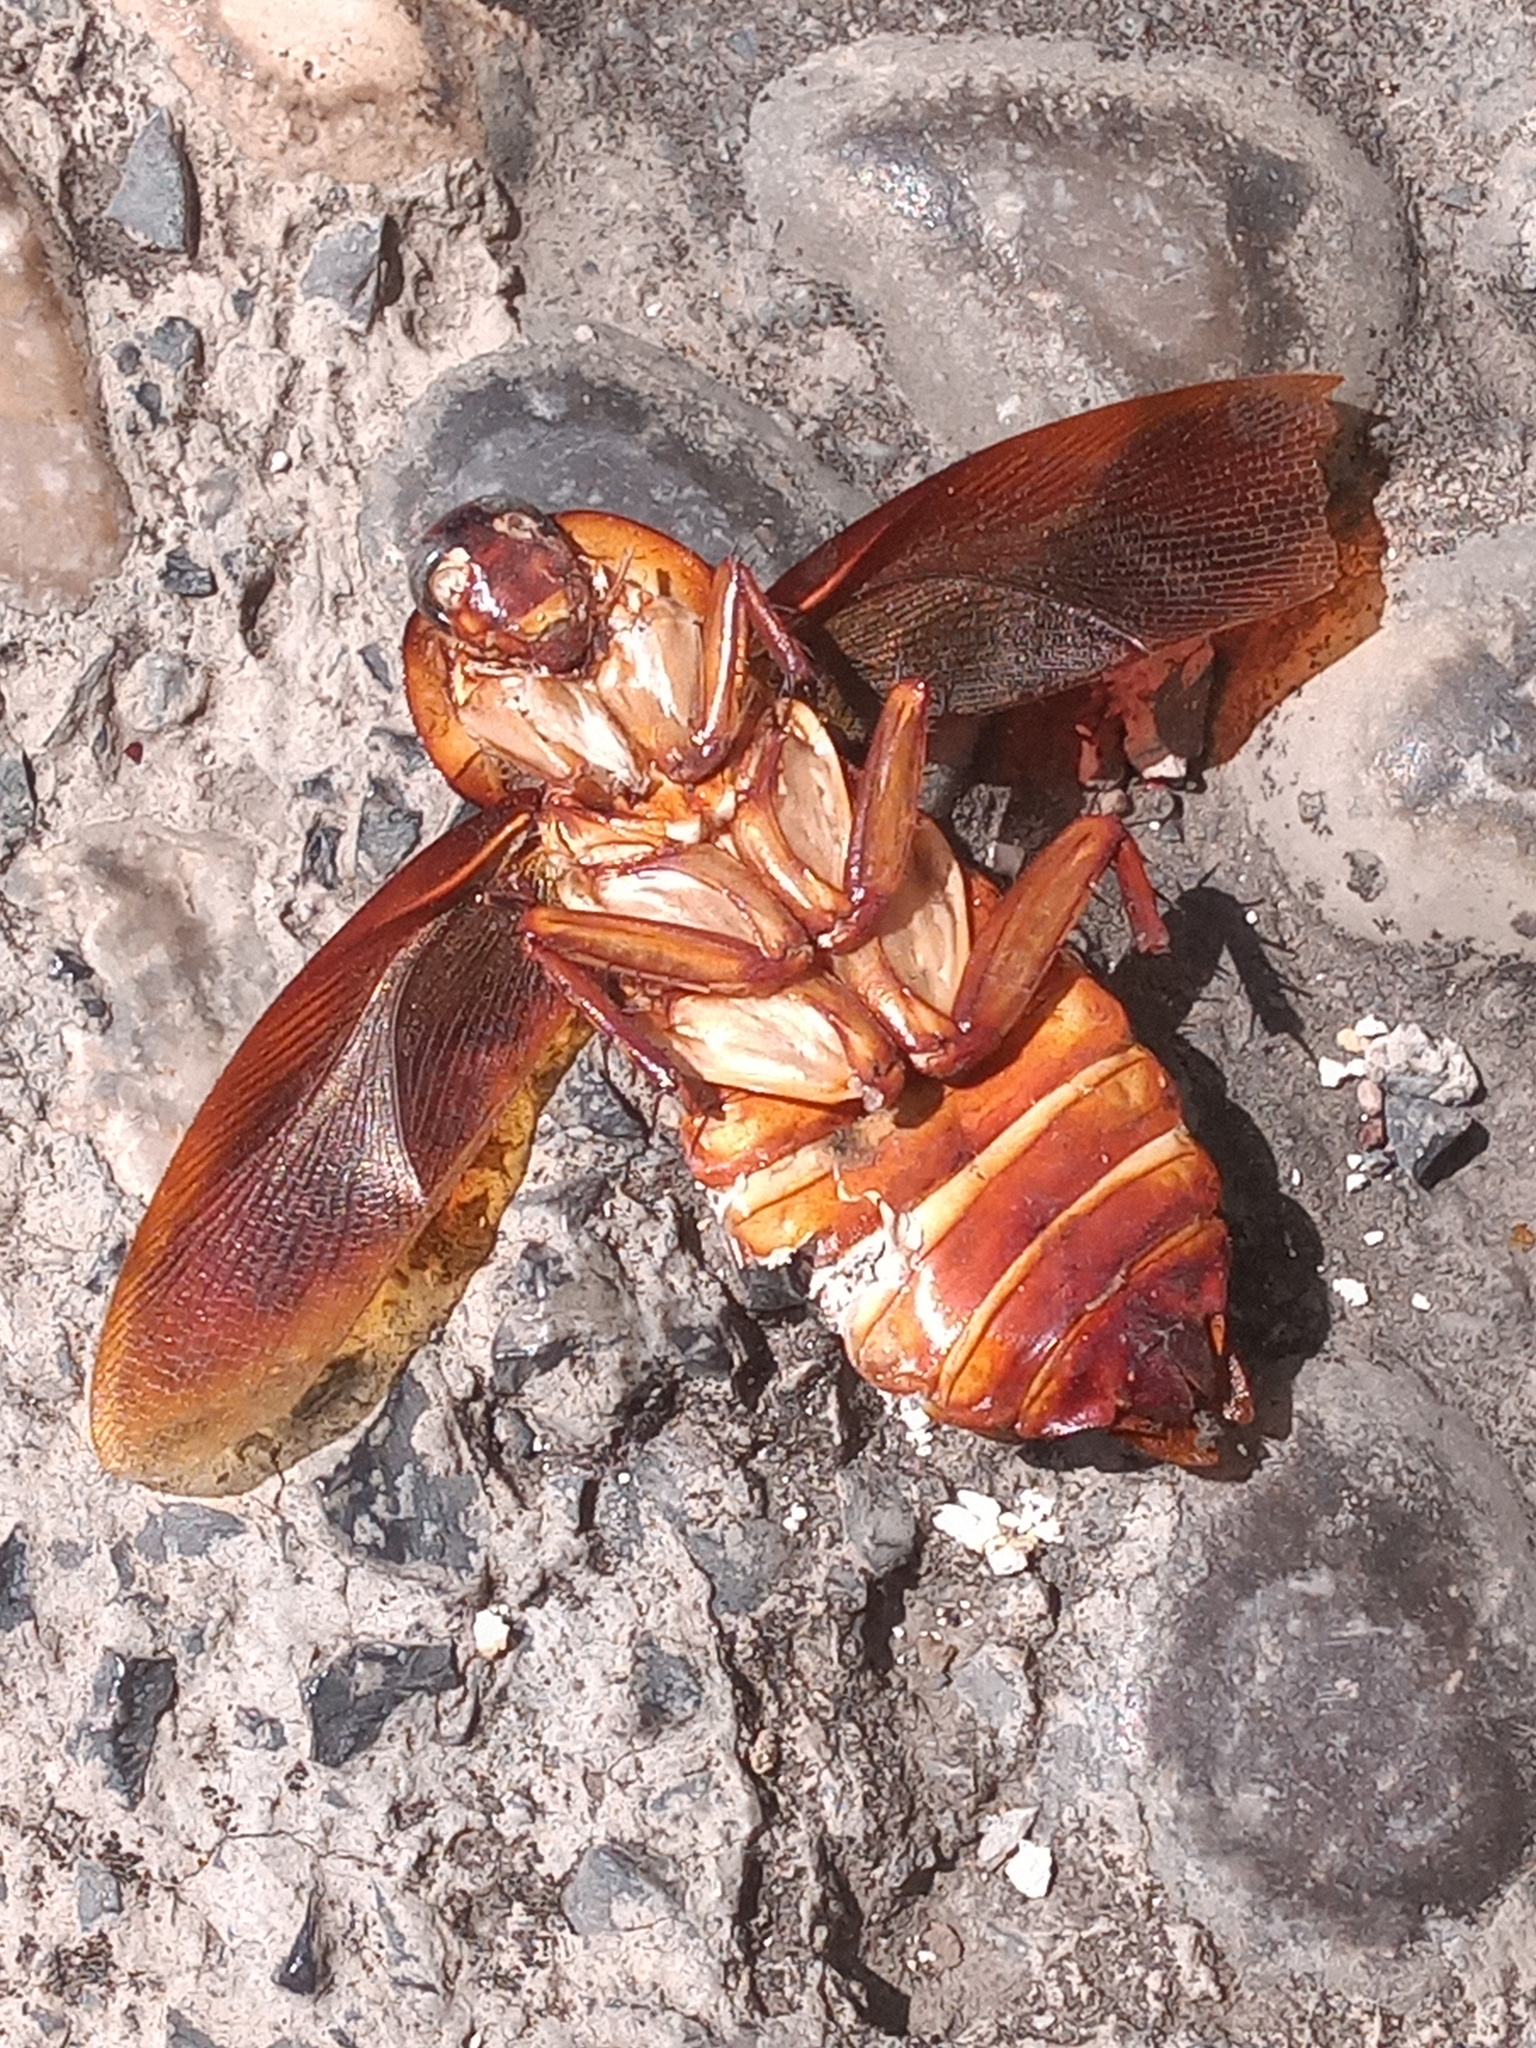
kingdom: Animalia
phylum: Arthropoda
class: Insecta
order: Blattodea
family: Blattidae
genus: Periplaneta
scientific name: Periplaneta americana
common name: American cockroach
